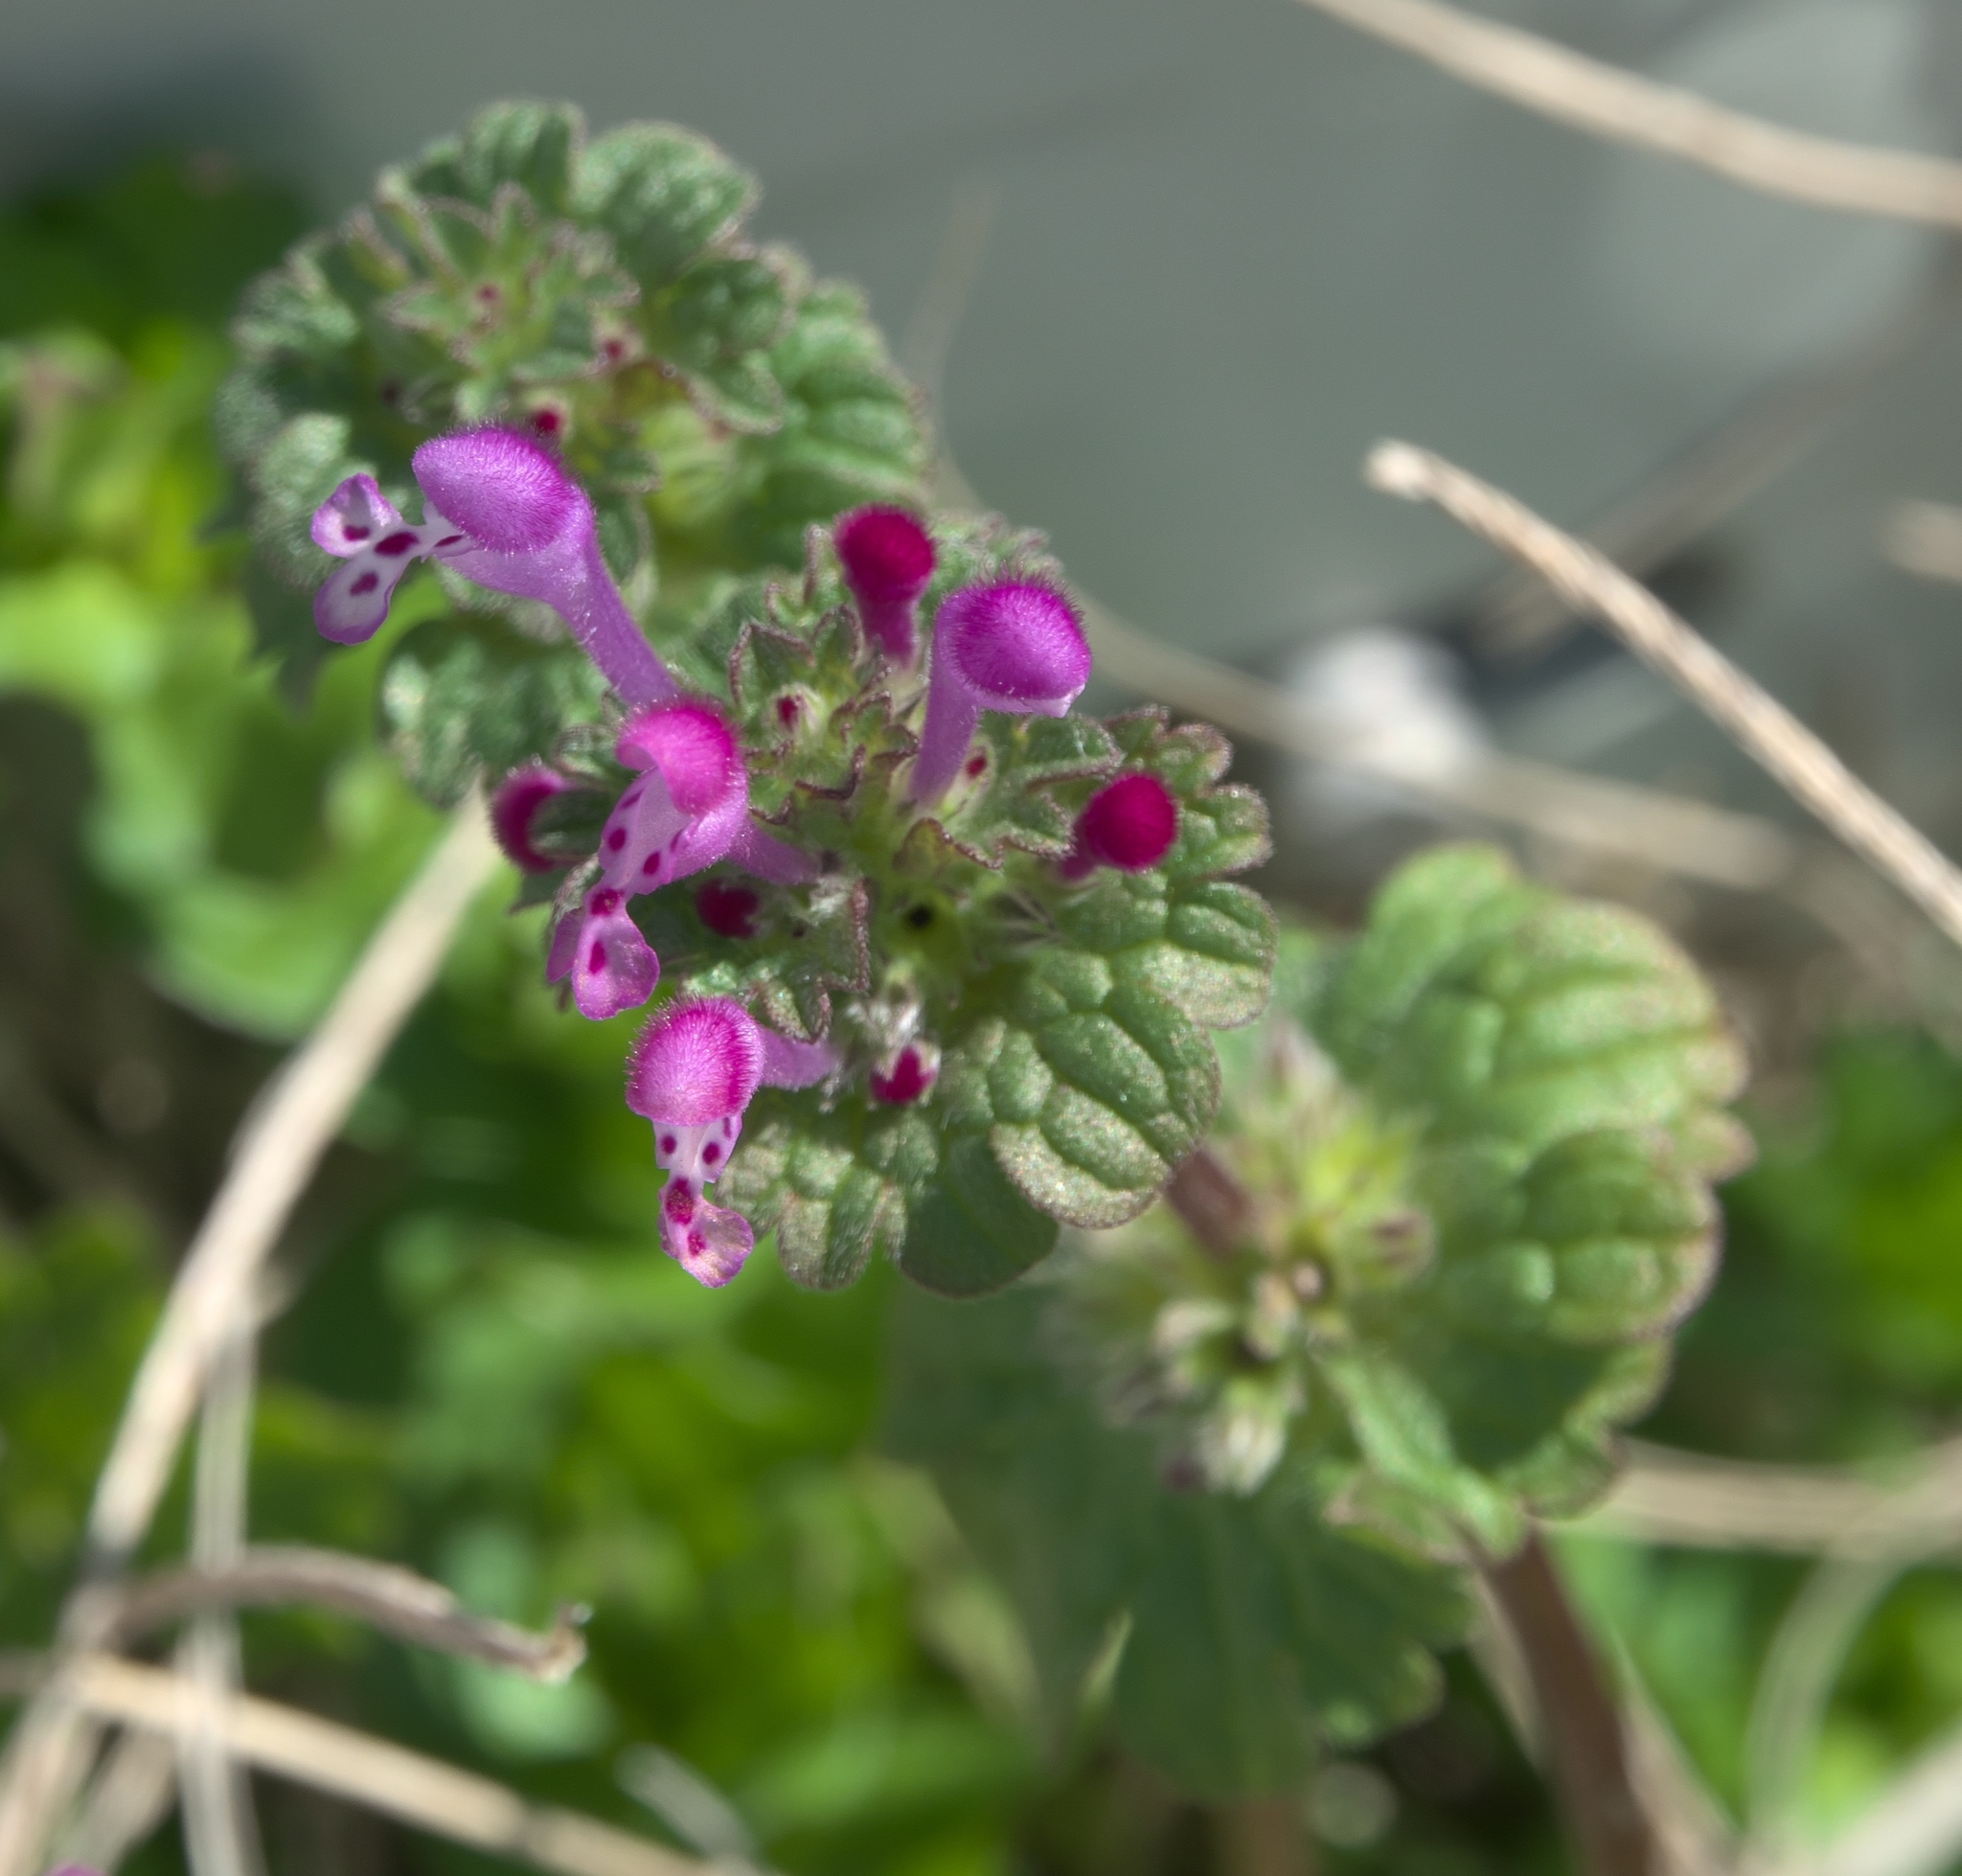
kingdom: Plantae
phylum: Tracheophyta
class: Magnoliopsida
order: Lamiales
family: Lamiaceae
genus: Lamium
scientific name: Lamium amplexicaule
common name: Henbit dead-nettle
